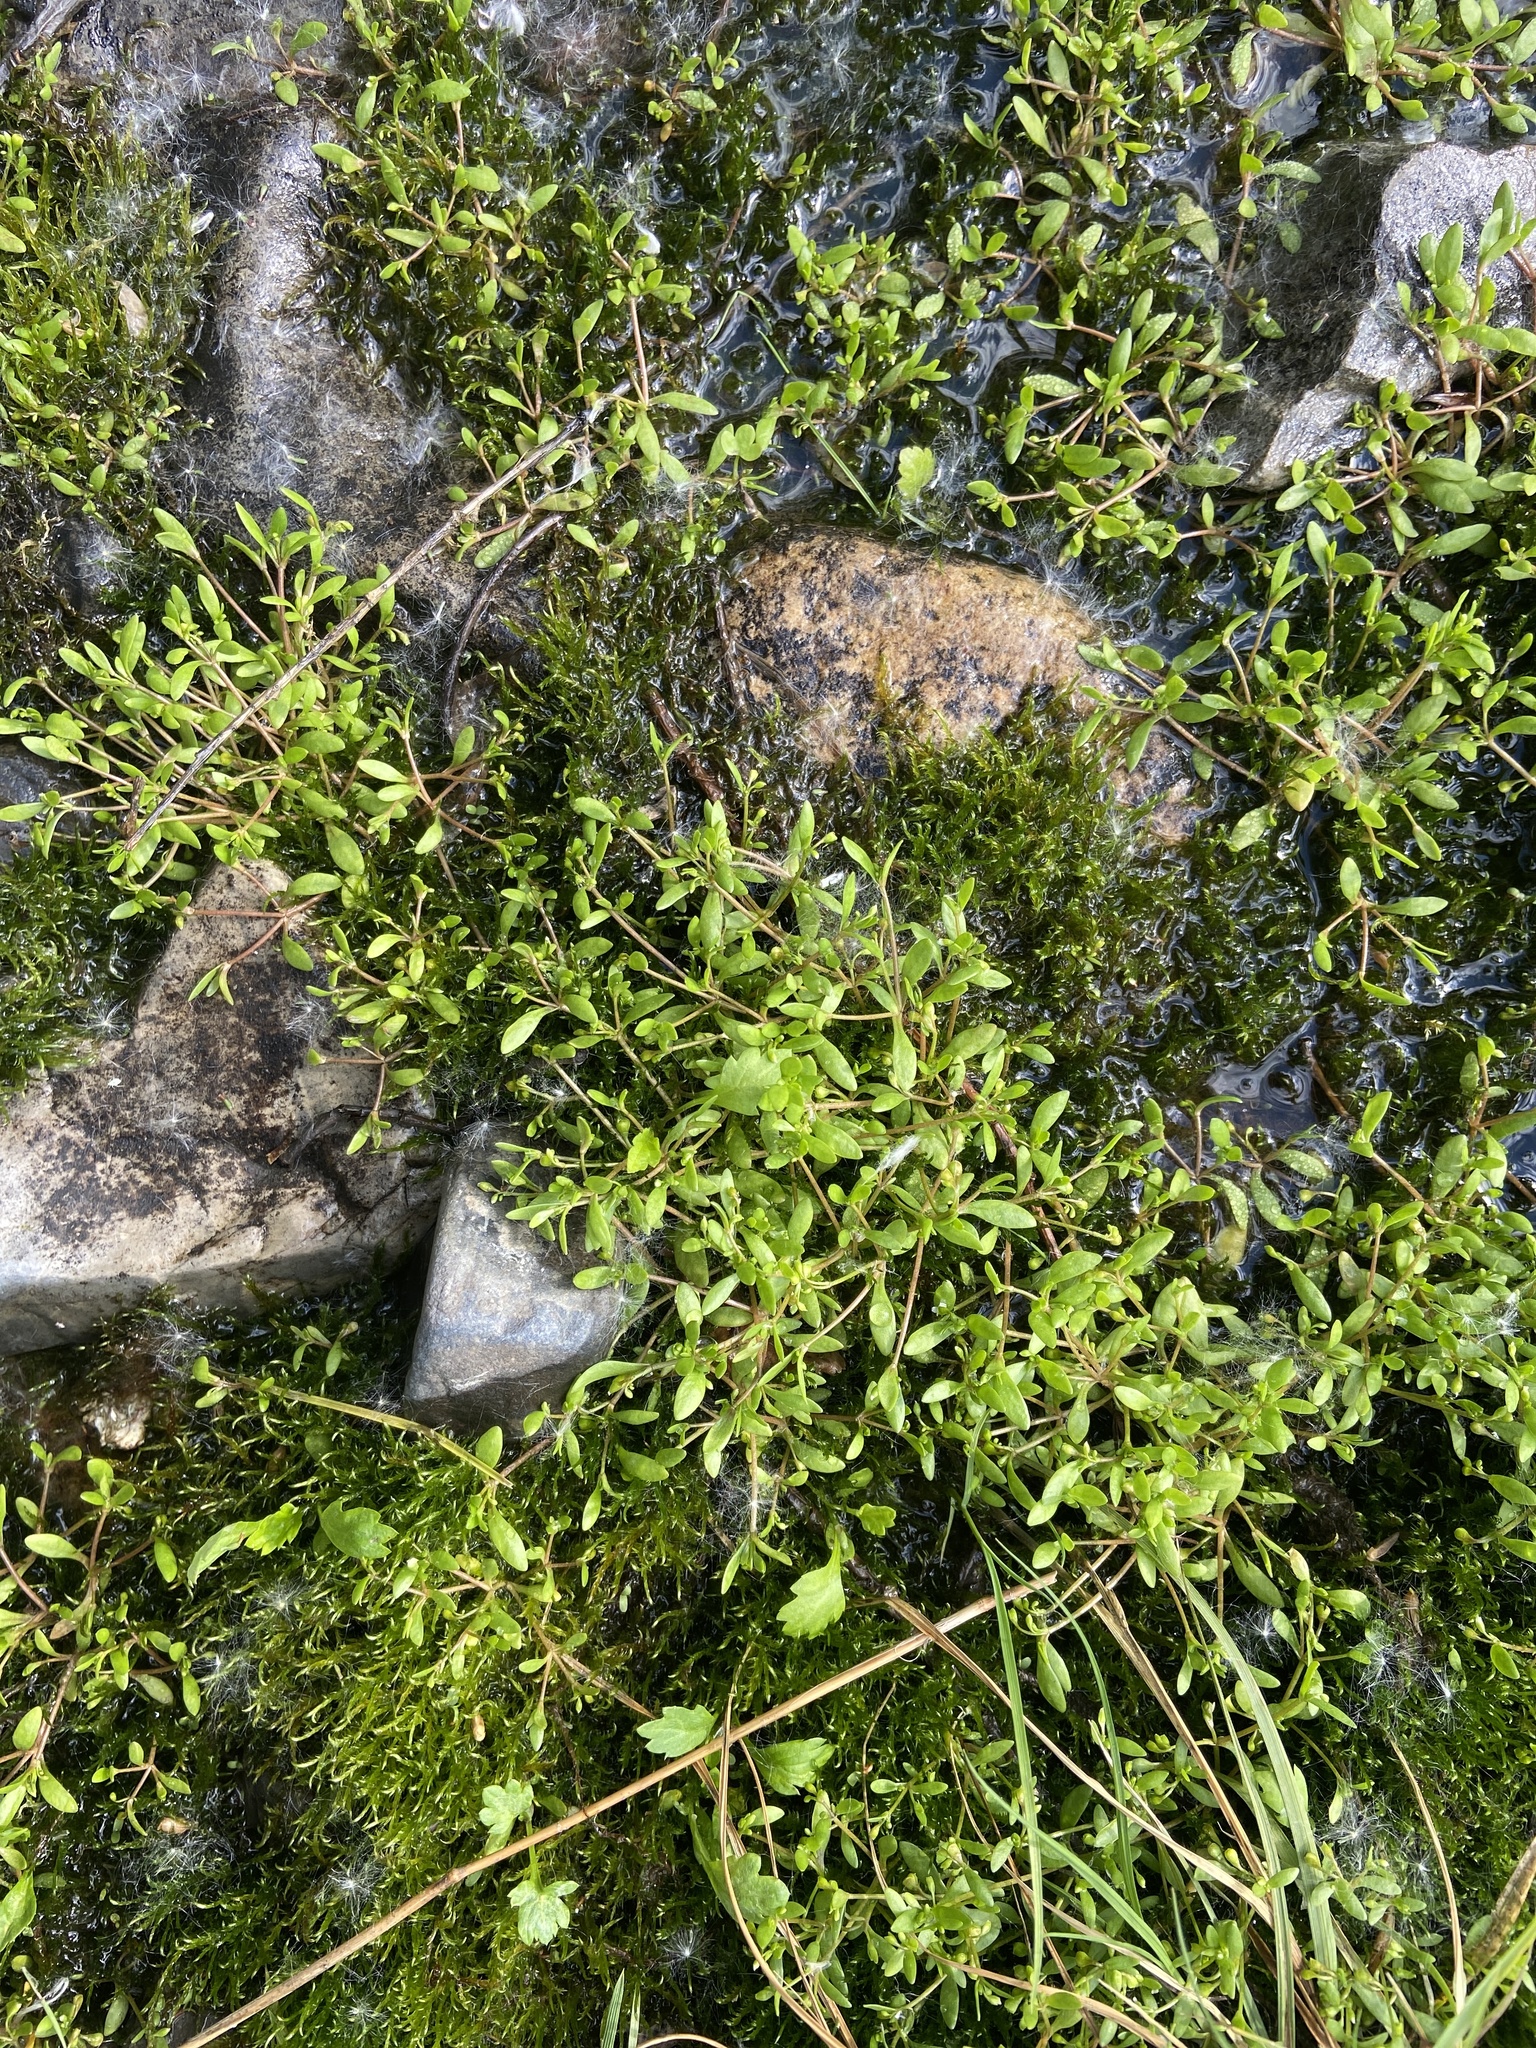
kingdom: Plantae
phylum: Tracheophyta
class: Magnoliopsida
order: Caryophyllales
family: Montiaceae
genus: Montia
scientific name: Montia fontana
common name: Blinks
